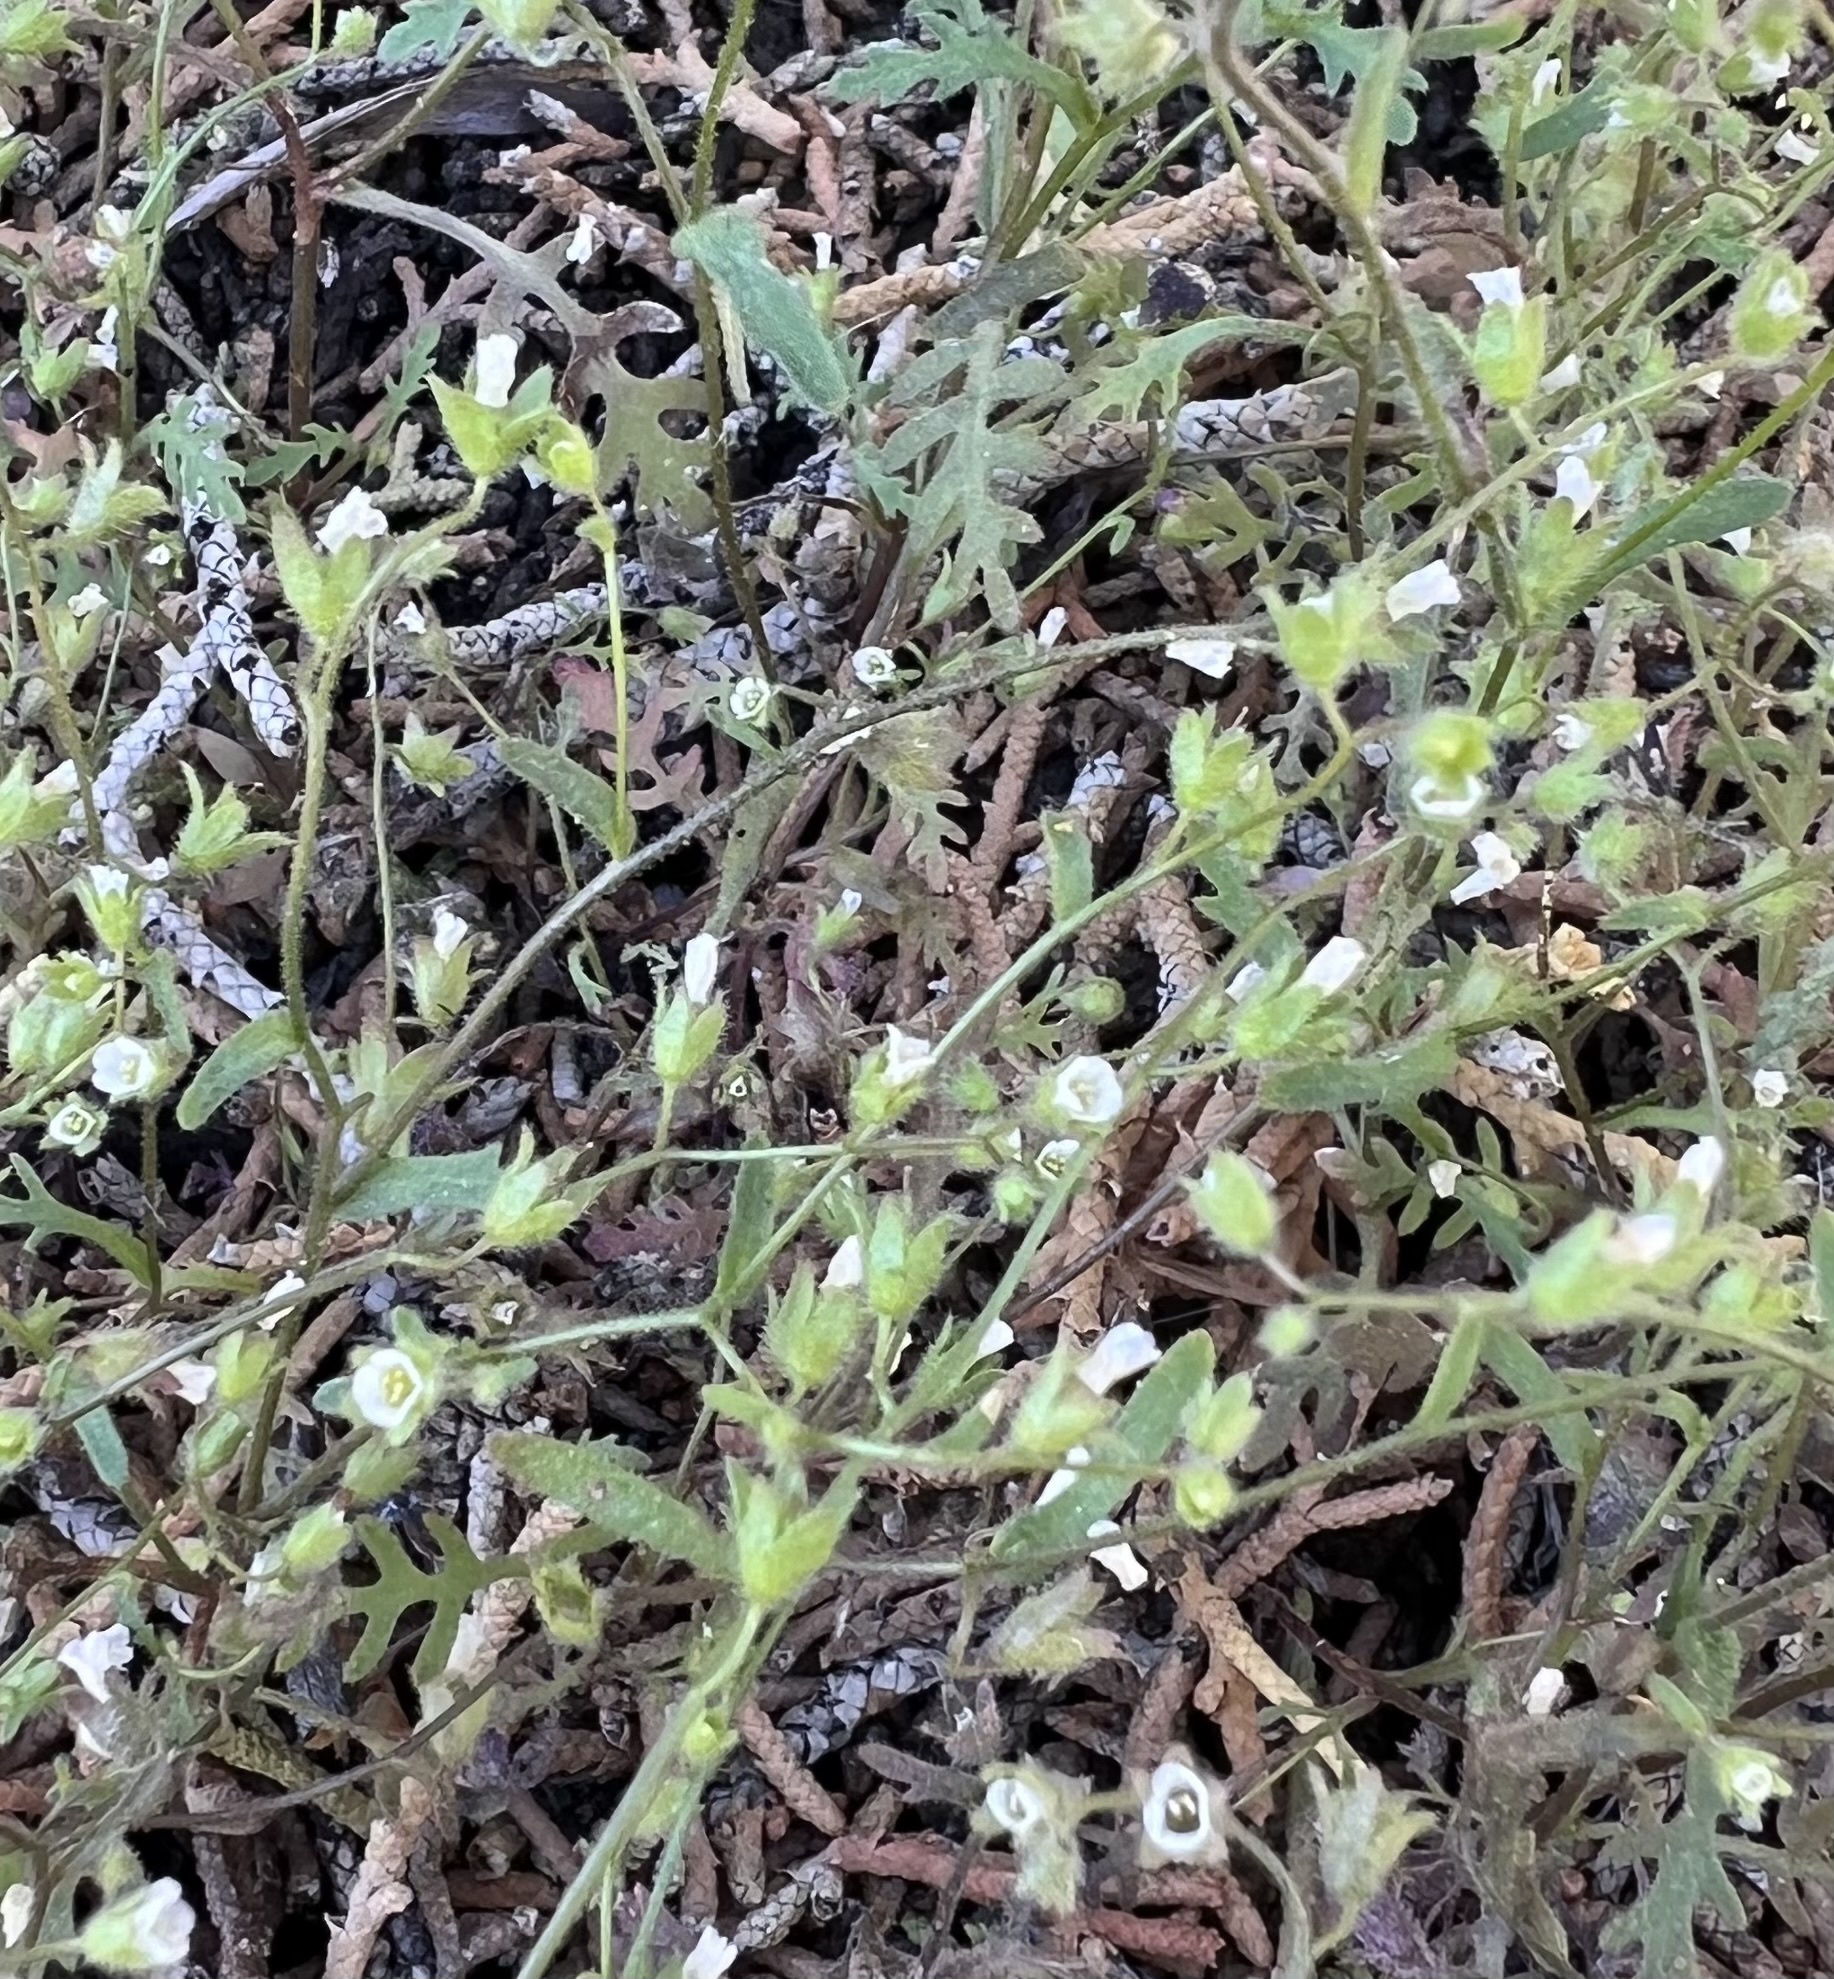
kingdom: Plantae
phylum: Tracheophyta
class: Magnoliopsida
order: Boraginales
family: Hydrophyllaceae
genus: Eucrypta
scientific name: Eucrypta micrantha
